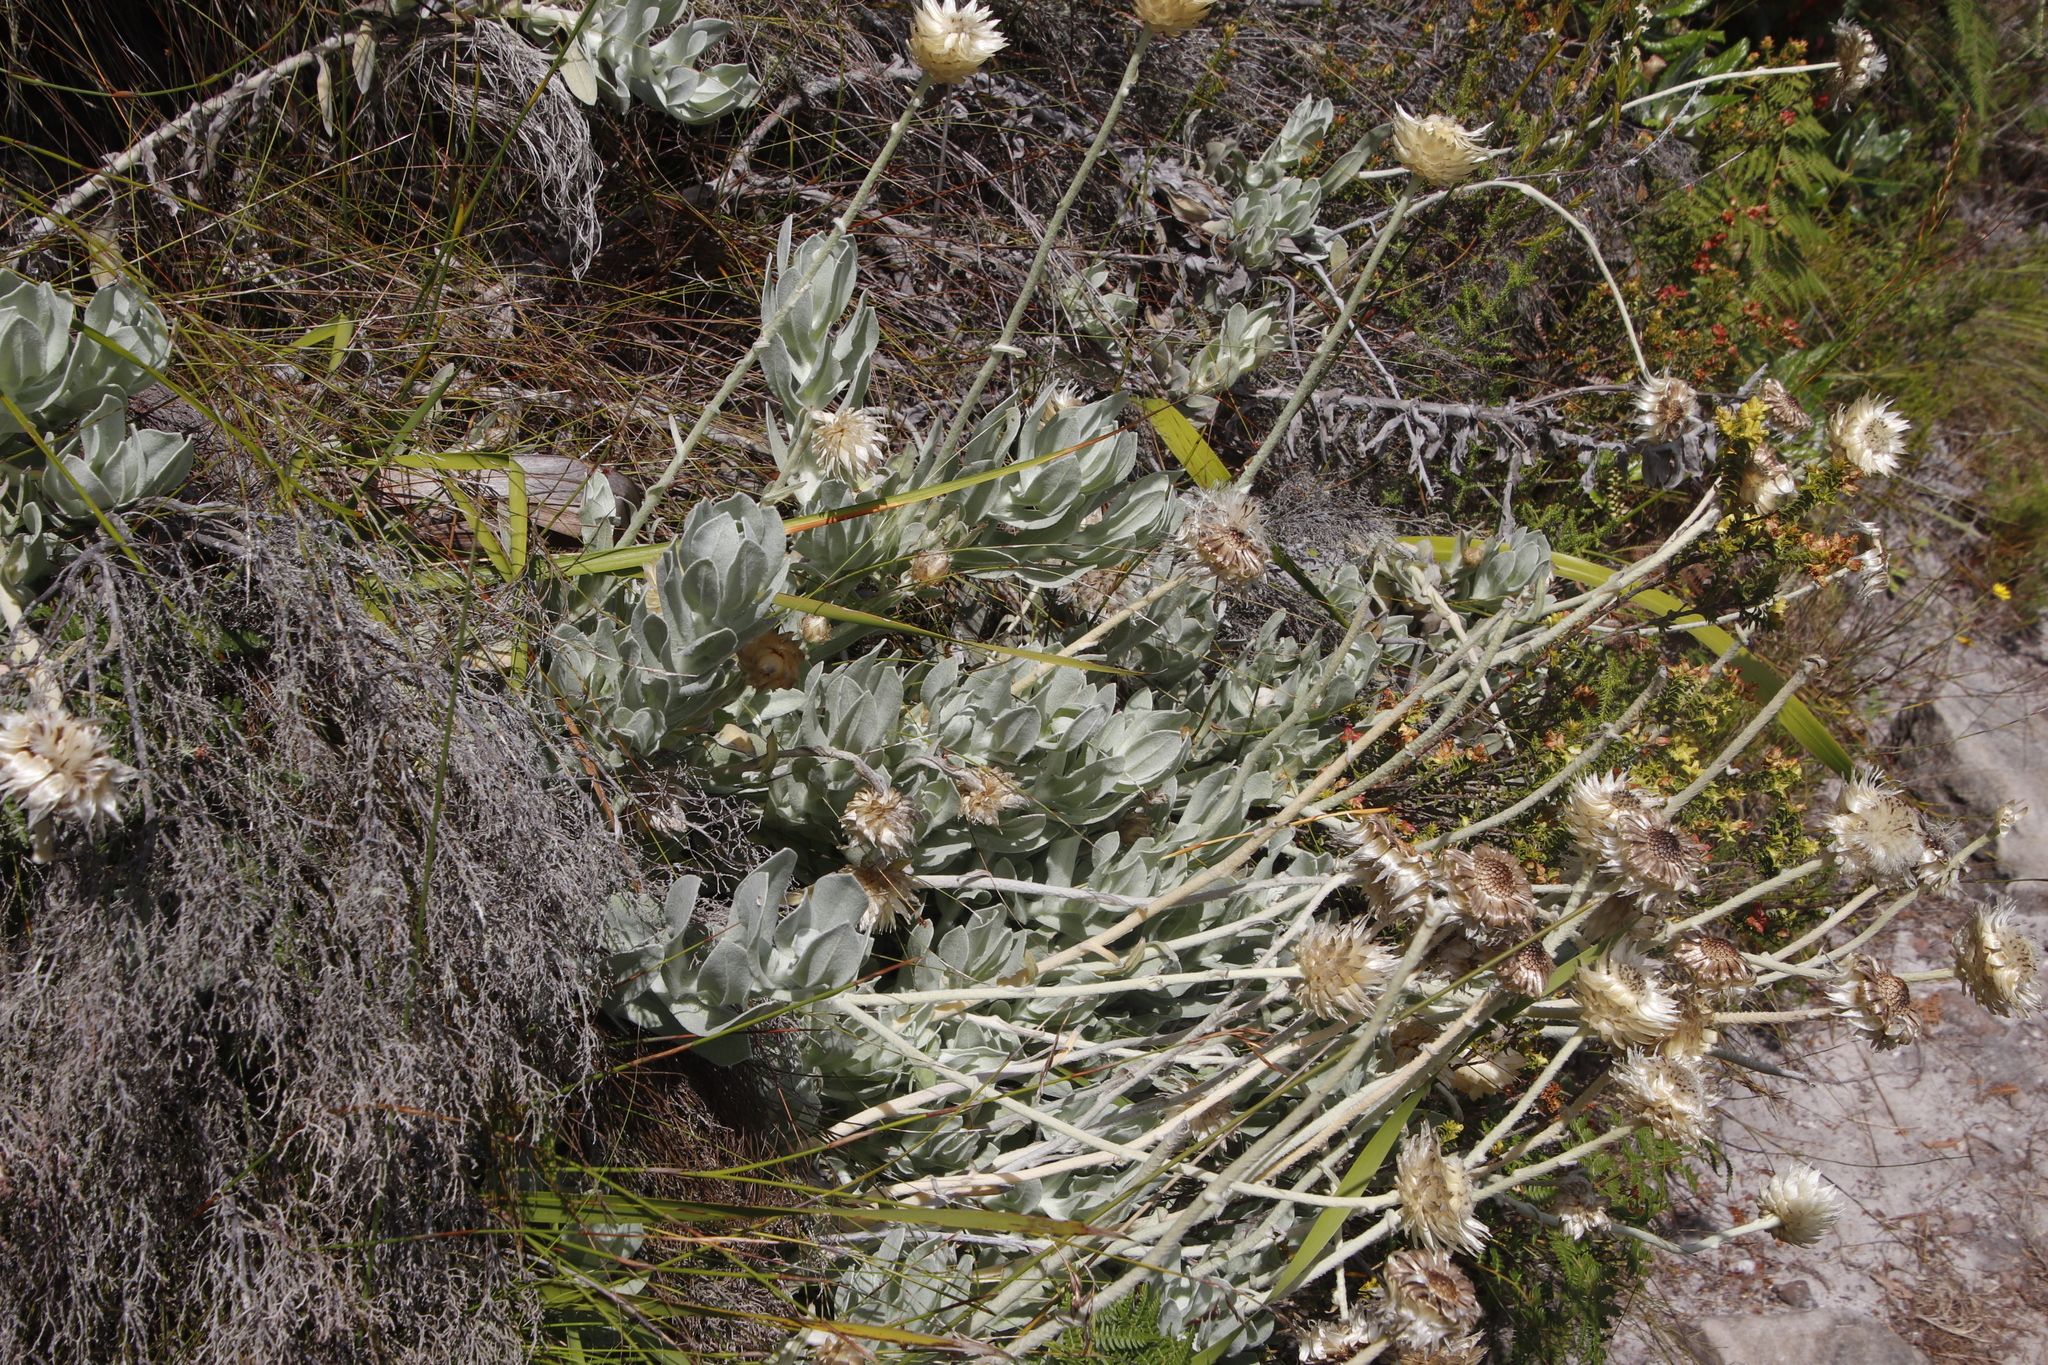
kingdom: Plantae
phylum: Tracheophyta
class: Magnoliopsida
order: Asterales
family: Asteraceae
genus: Syncarpha
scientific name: Syncarpha speciosissima
